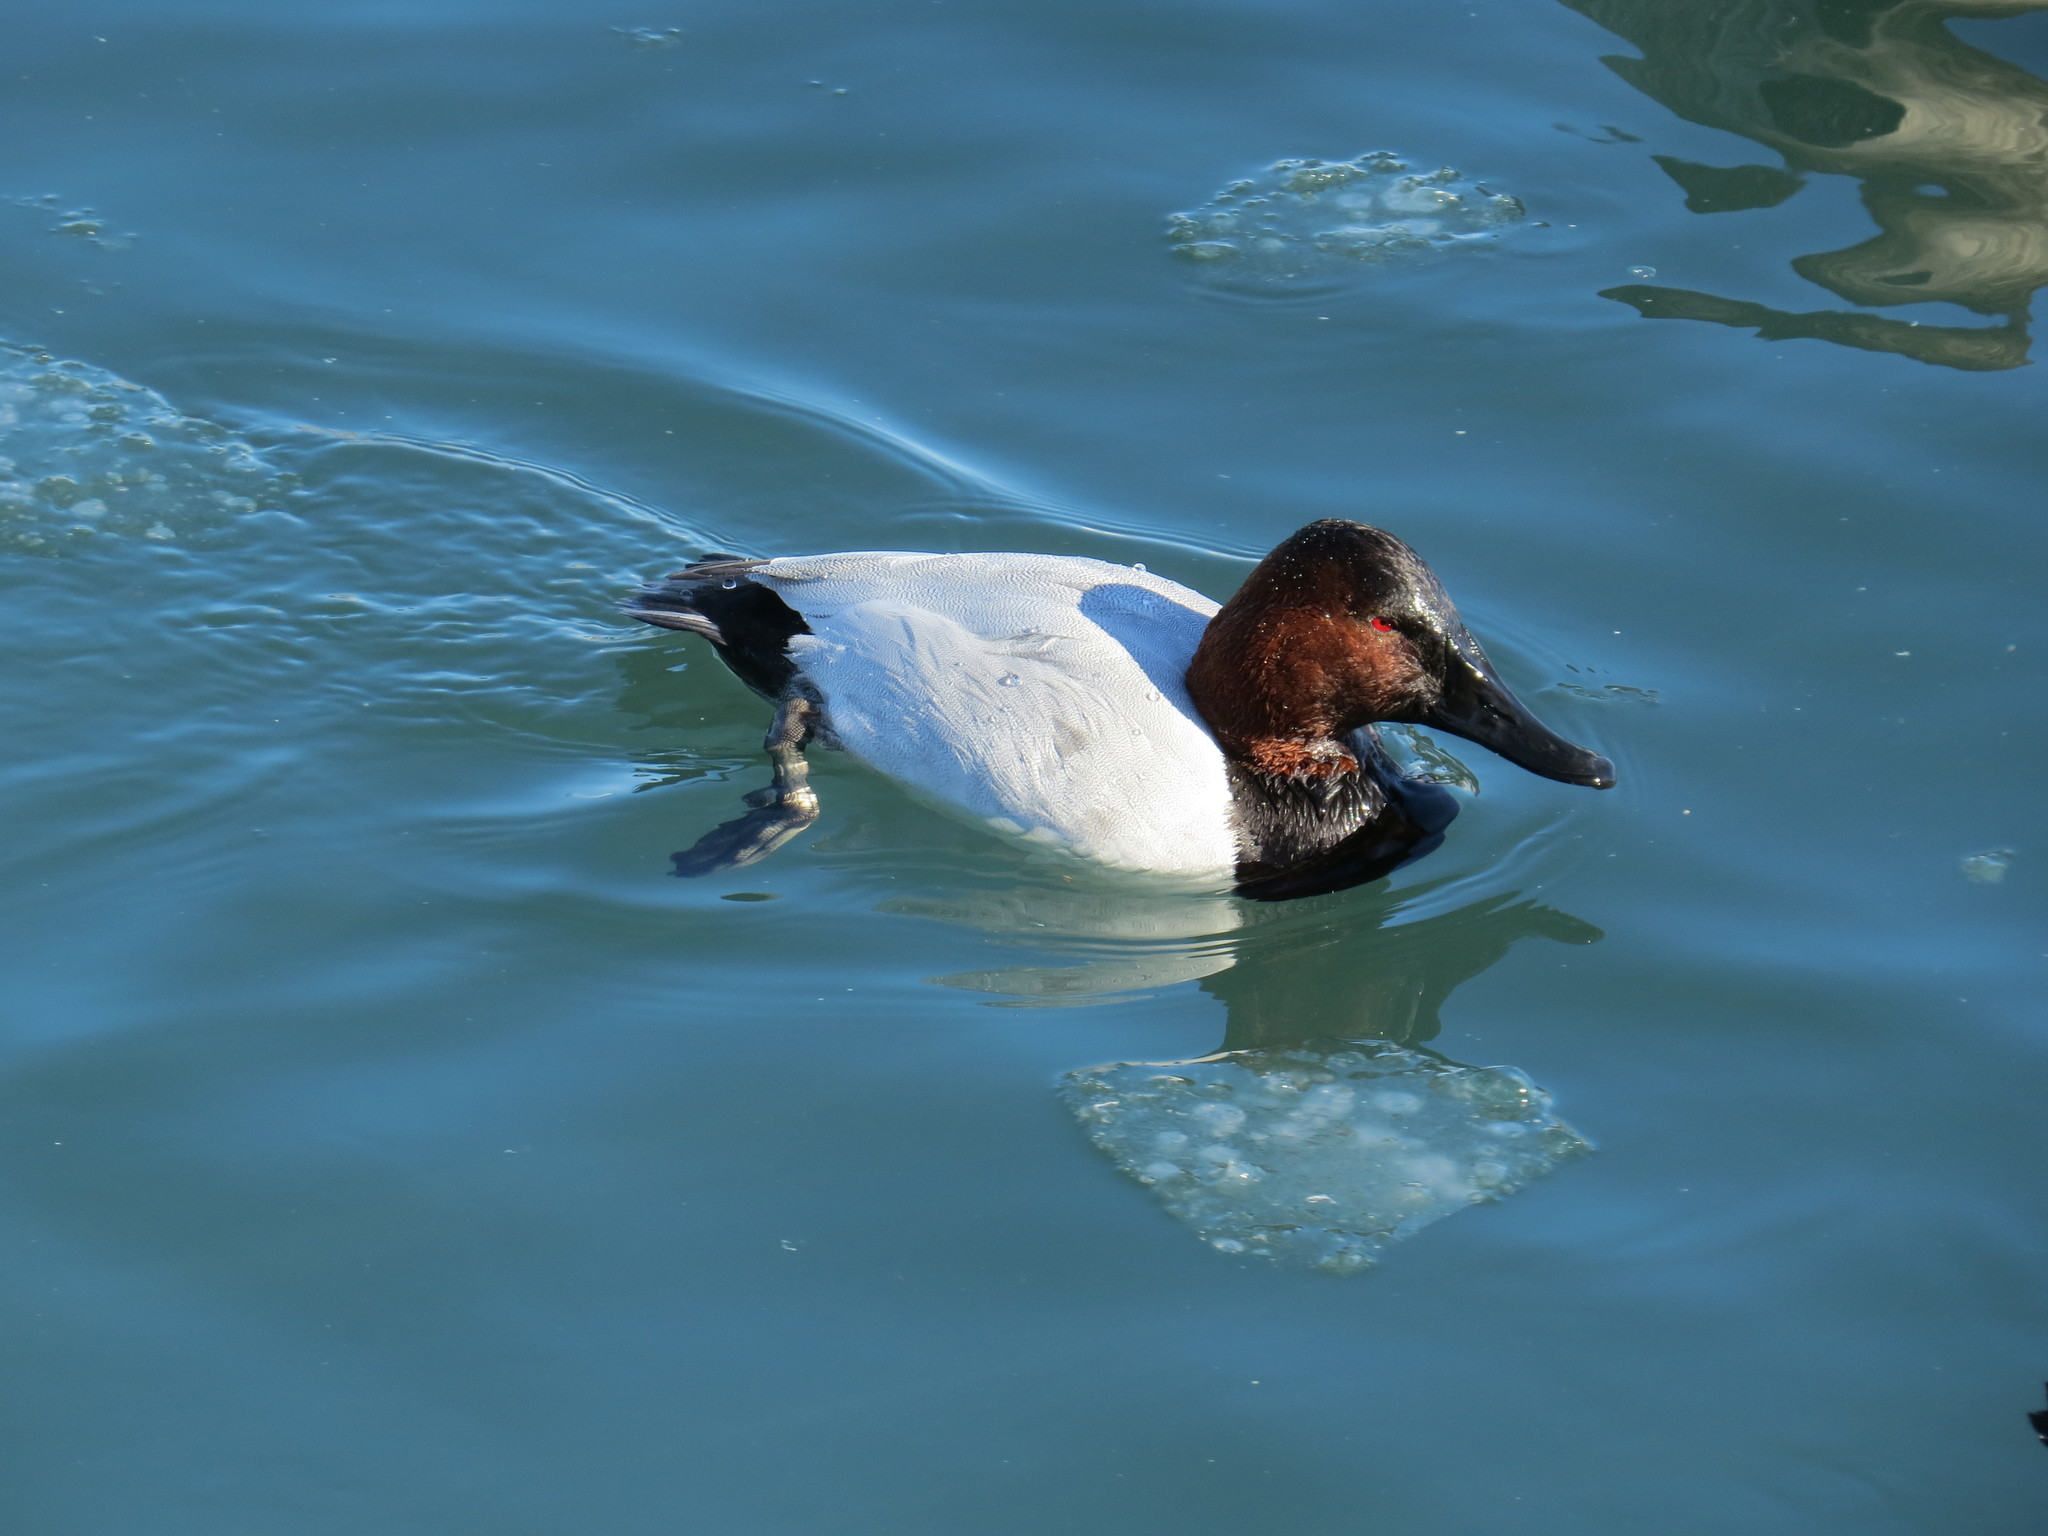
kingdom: Animalia
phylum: Chordata
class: Aves
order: Anseriformes
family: Anatidae
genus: Aythya
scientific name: Aythya valisineria
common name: Canvasback
